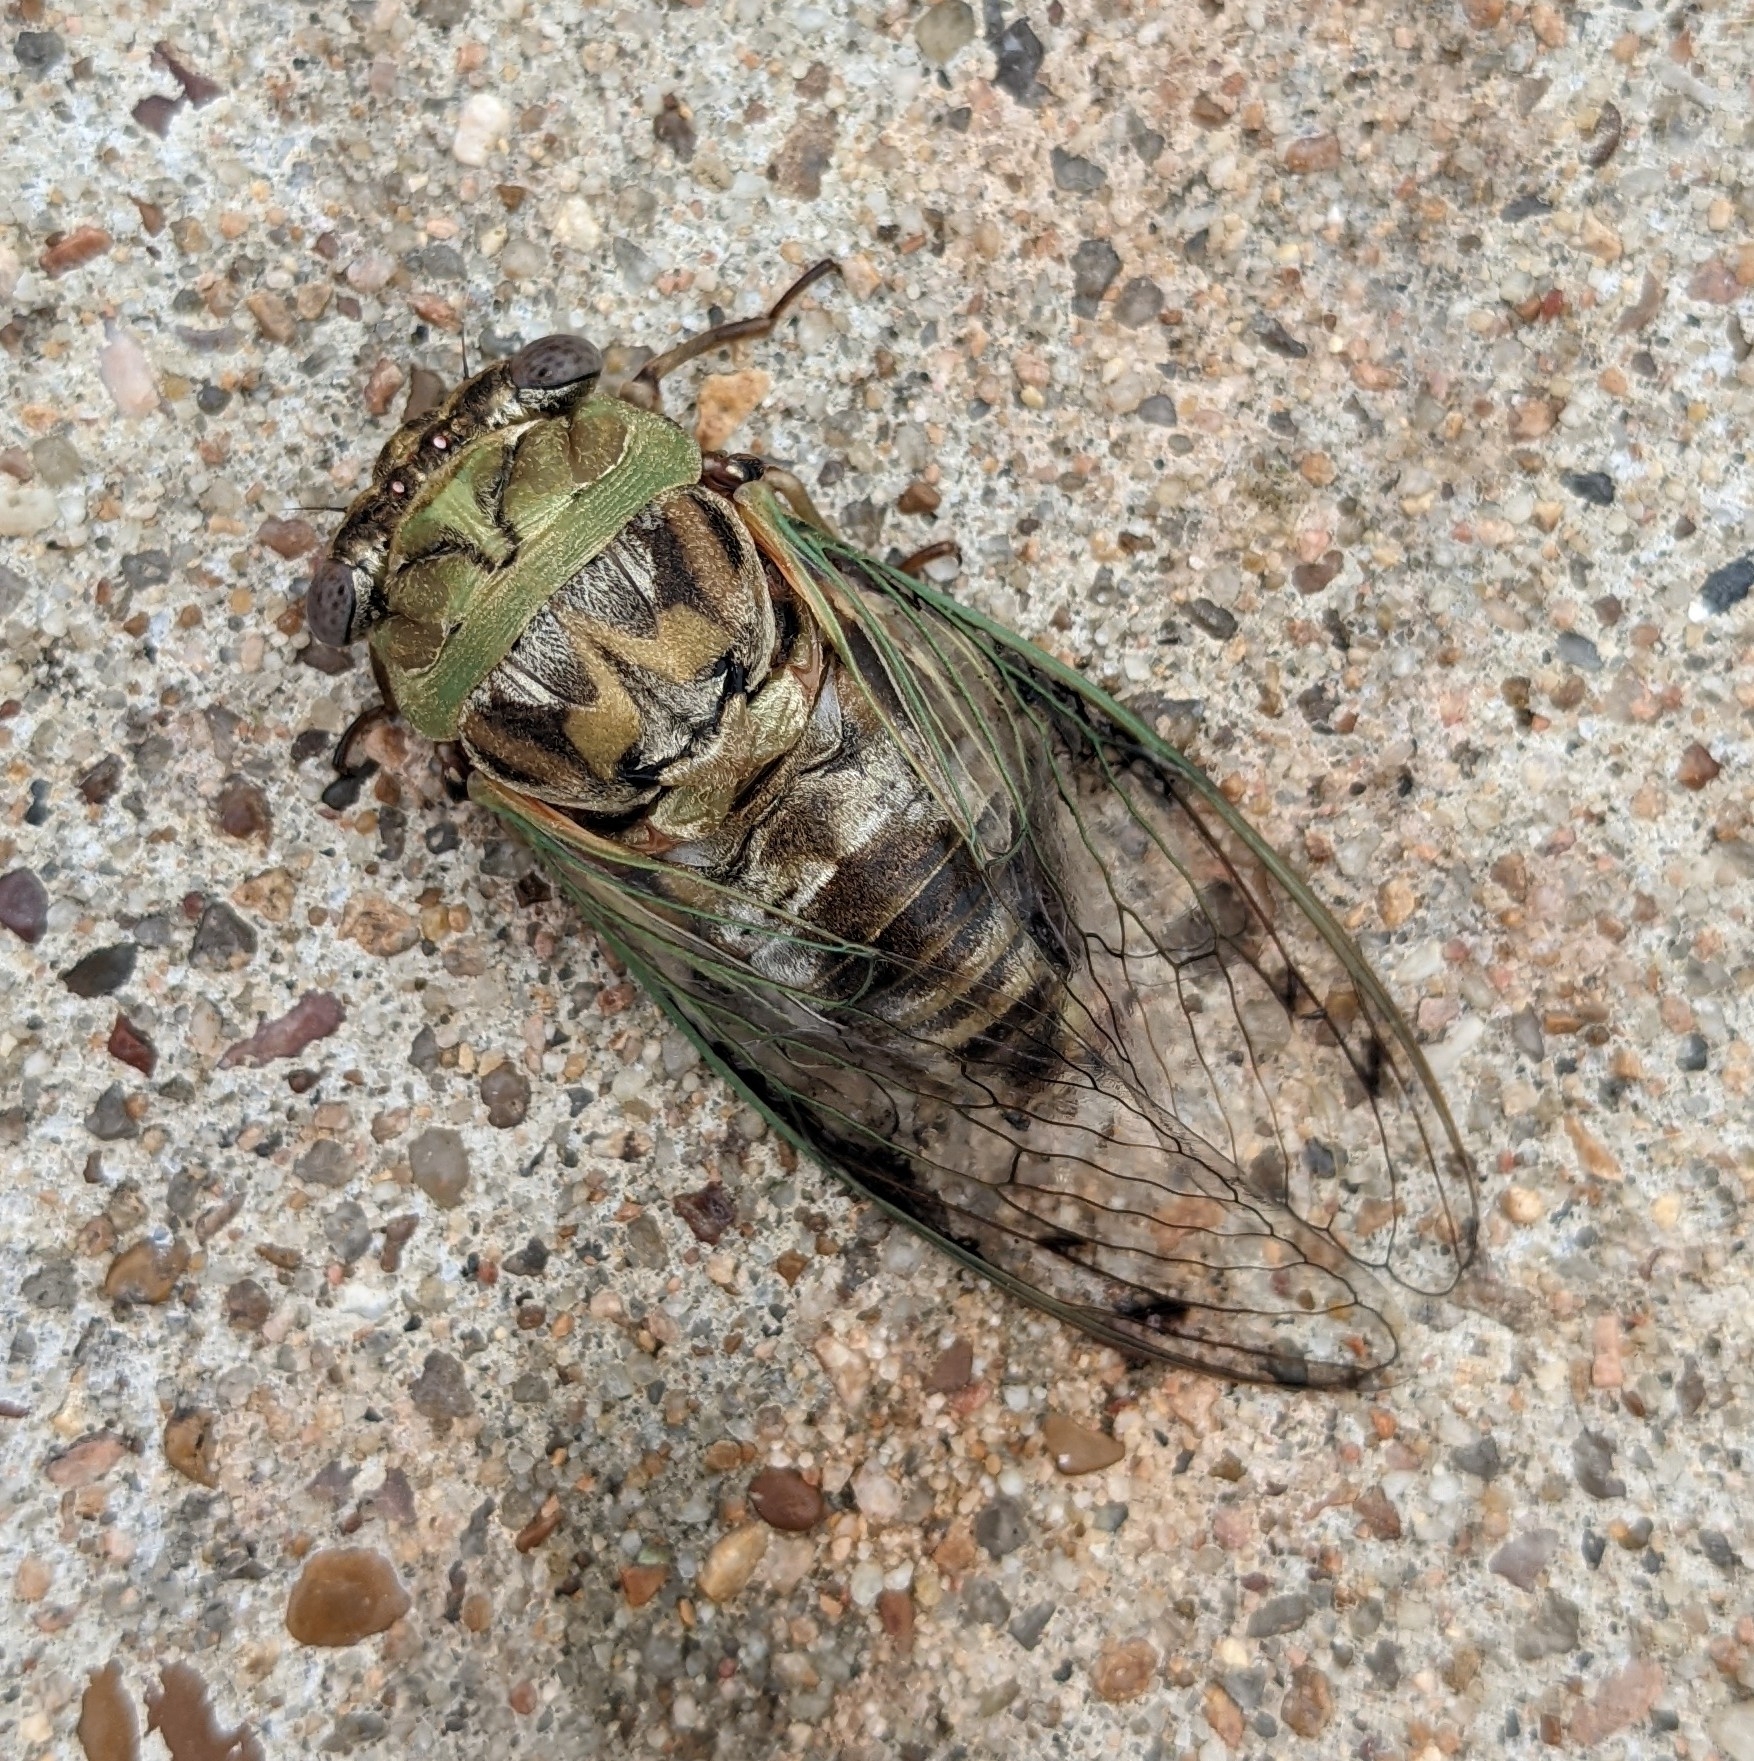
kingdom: Animalia
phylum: Arthropoda
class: Insecta
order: Hemiptera
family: Cicadidae
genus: Megatibicen
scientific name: Megatibicen resh
